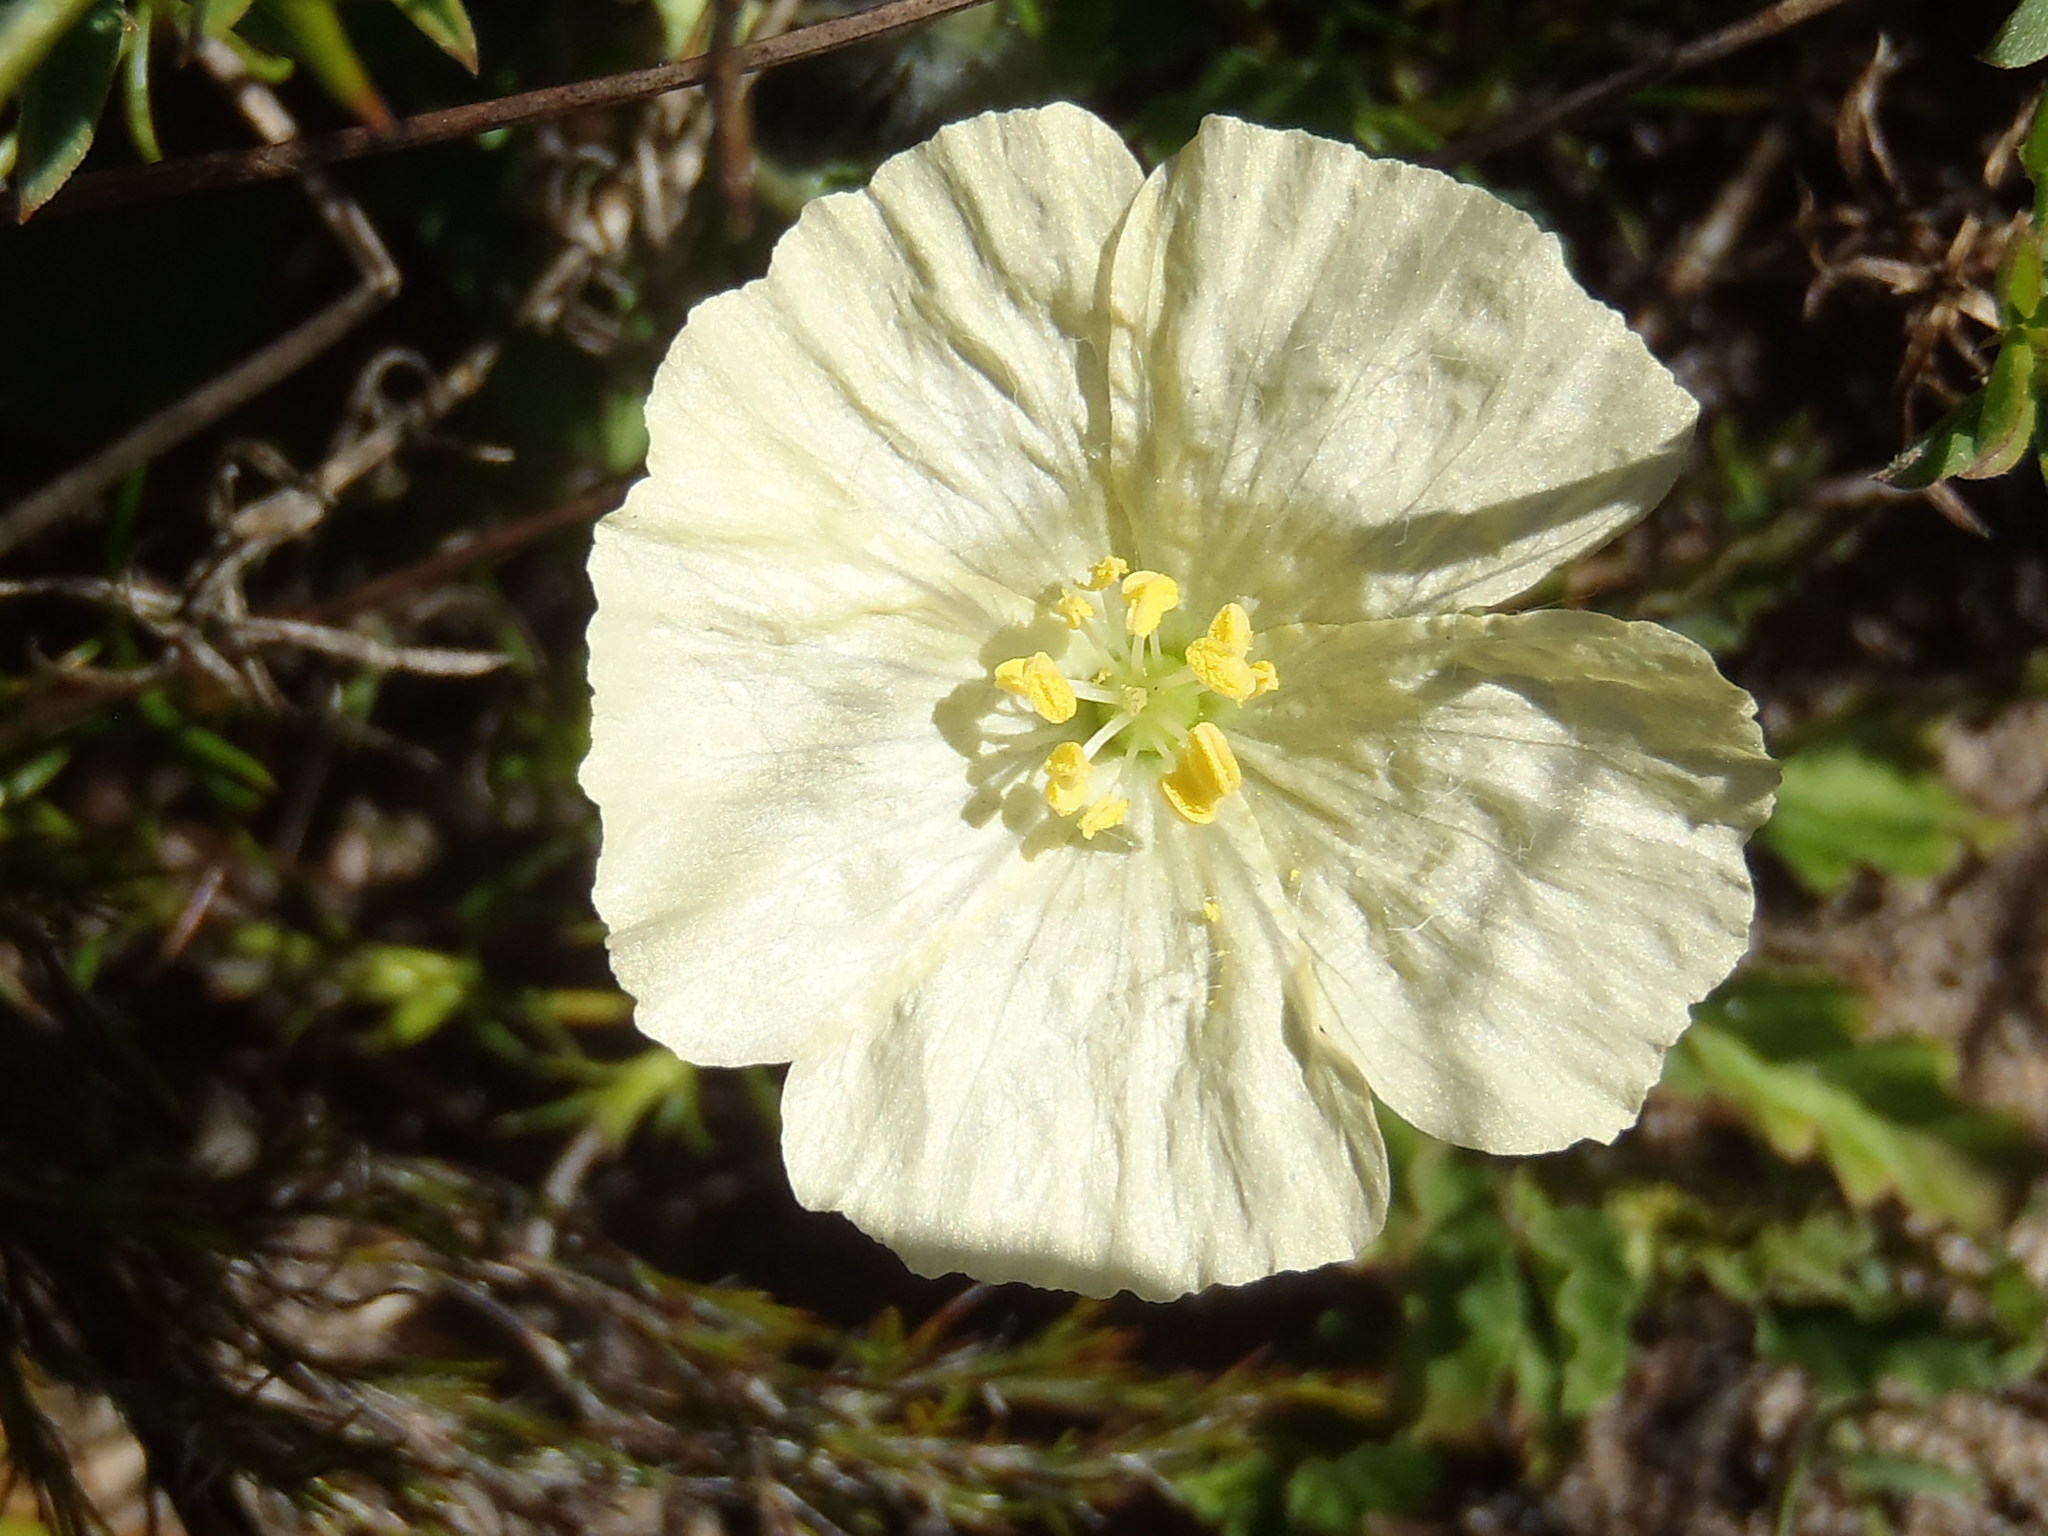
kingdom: Plantae
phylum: Tracheophyta
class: Magnoliopsida
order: Geraniales
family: Geraniaceae
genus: Monsonia
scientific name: Monsonia emarginata
